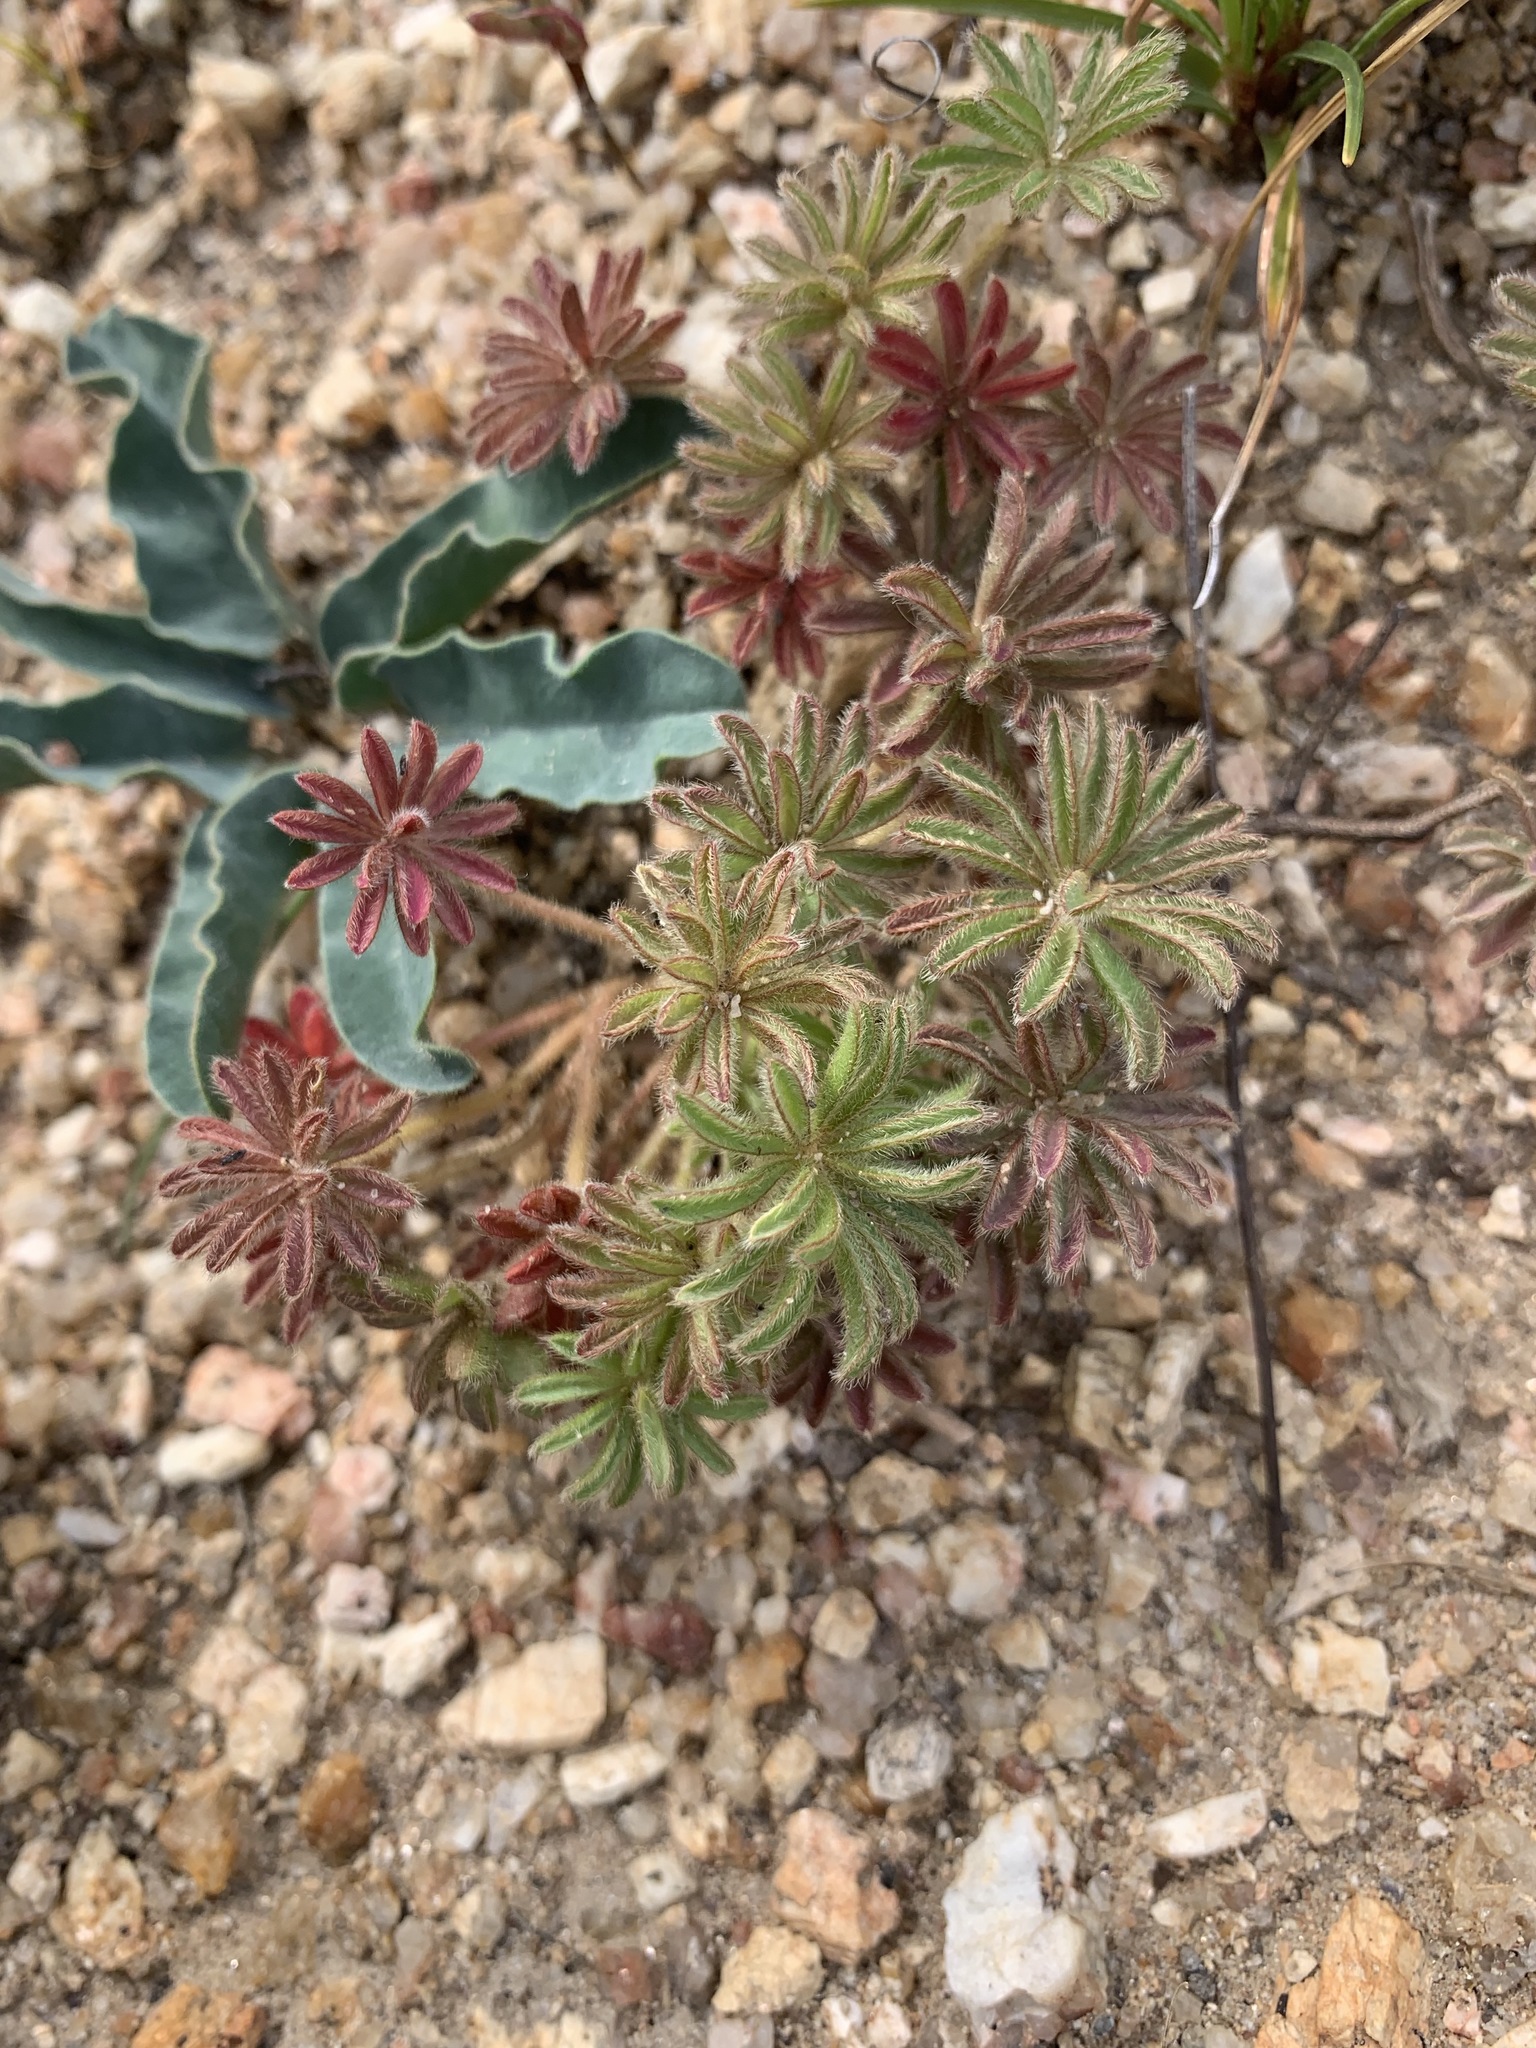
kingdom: Plantae
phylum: Tracheophyta
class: Magnoliopsida
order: Oxalidales
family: Oxalidaceae
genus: Oxalis
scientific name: Oxalis tomentosa
